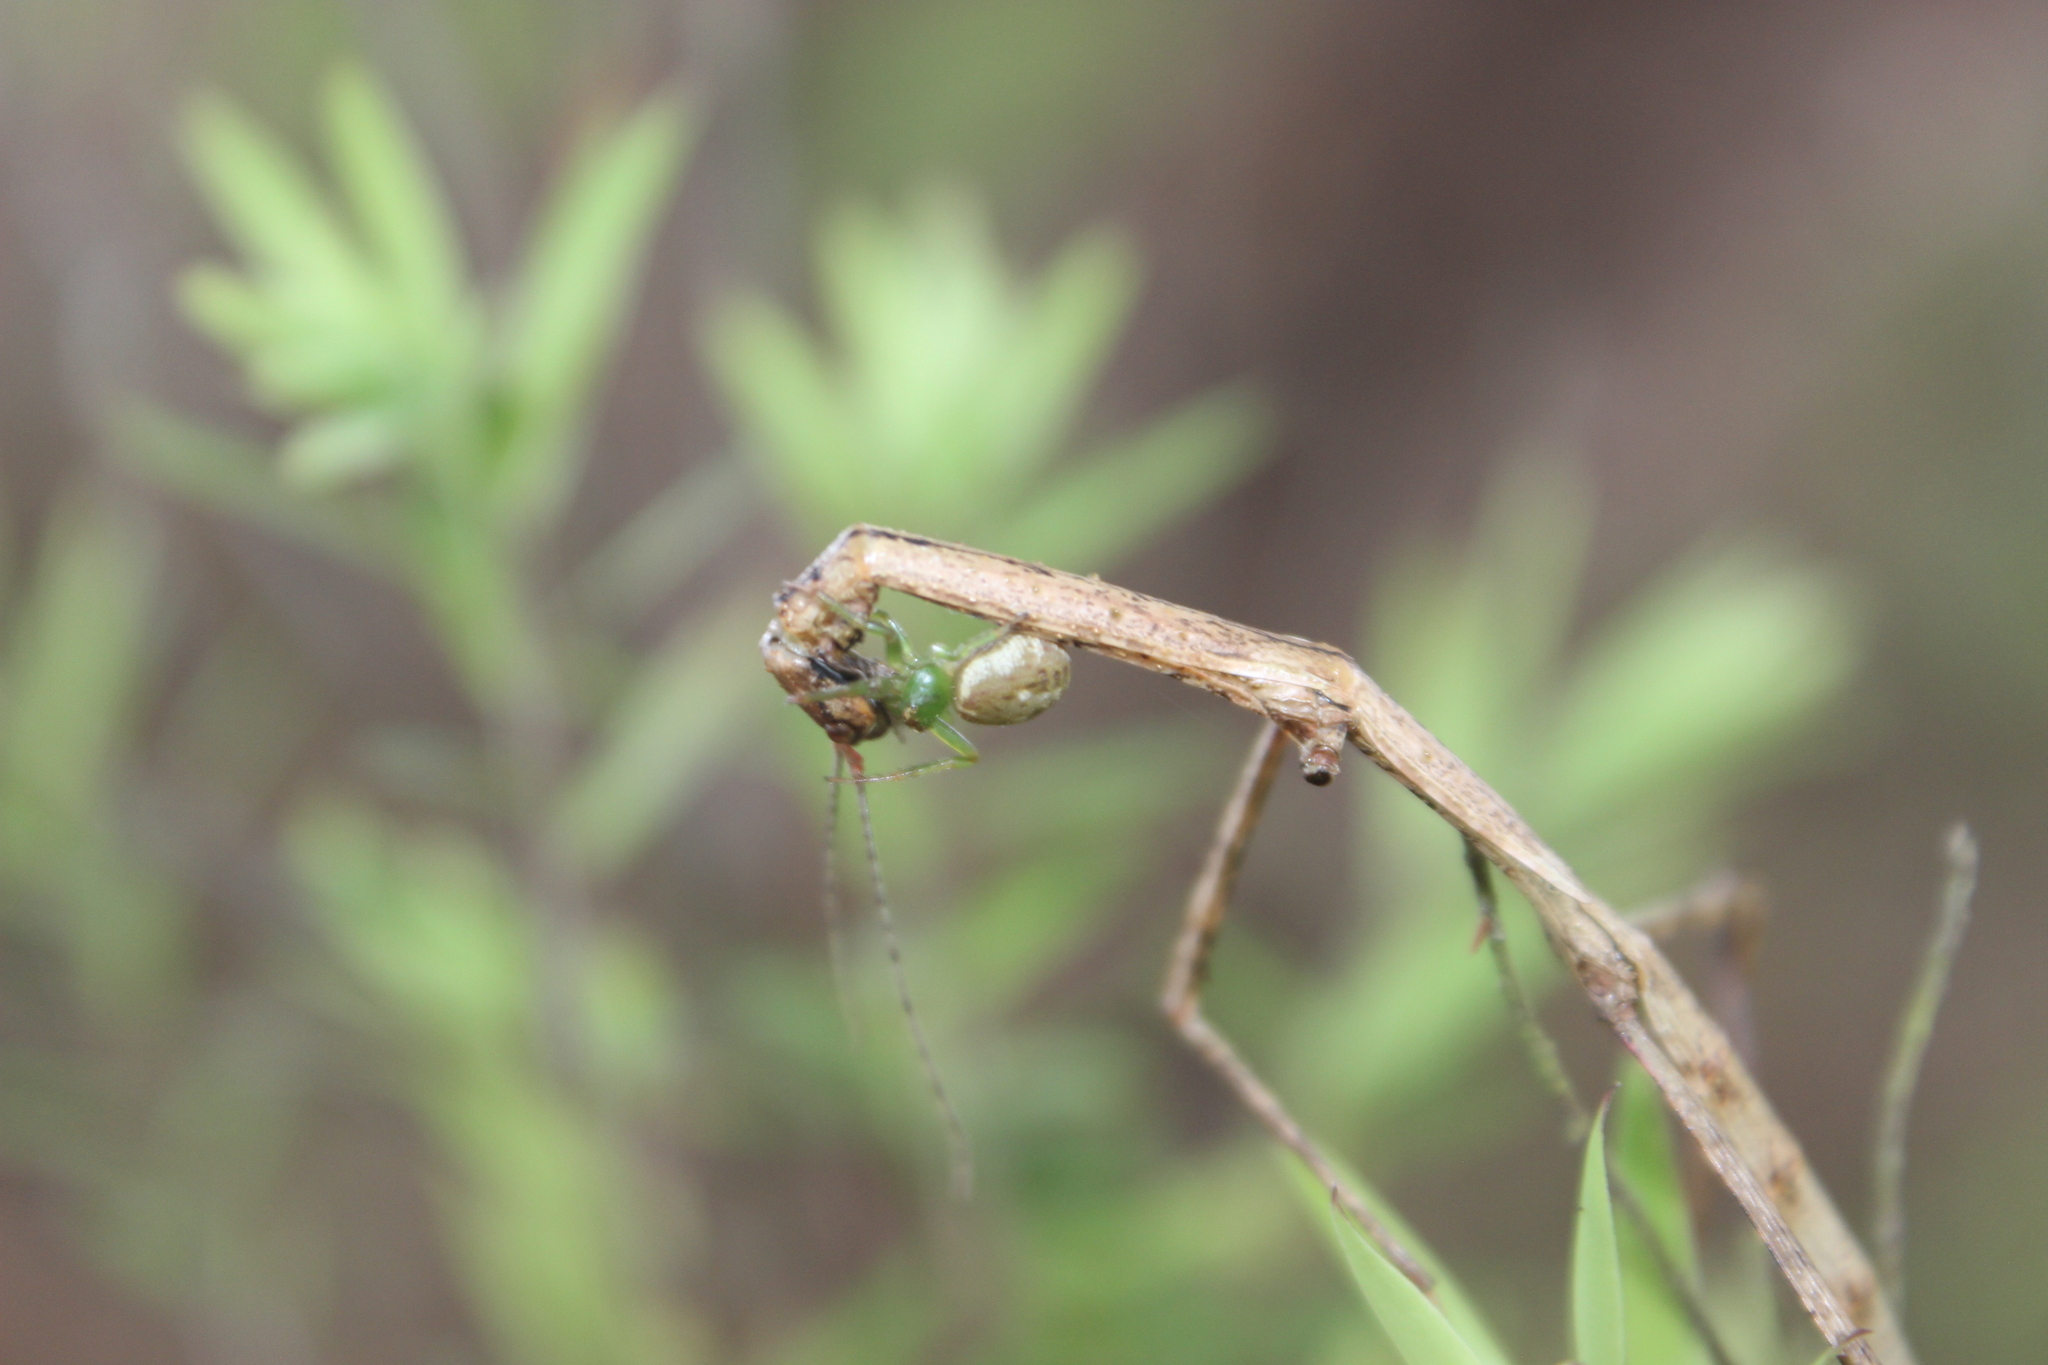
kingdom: Animalia
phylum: Arthropoda
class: Arachnida
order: Araneae
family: Thomisidae
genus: Diaea
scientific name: Diaea ambara
